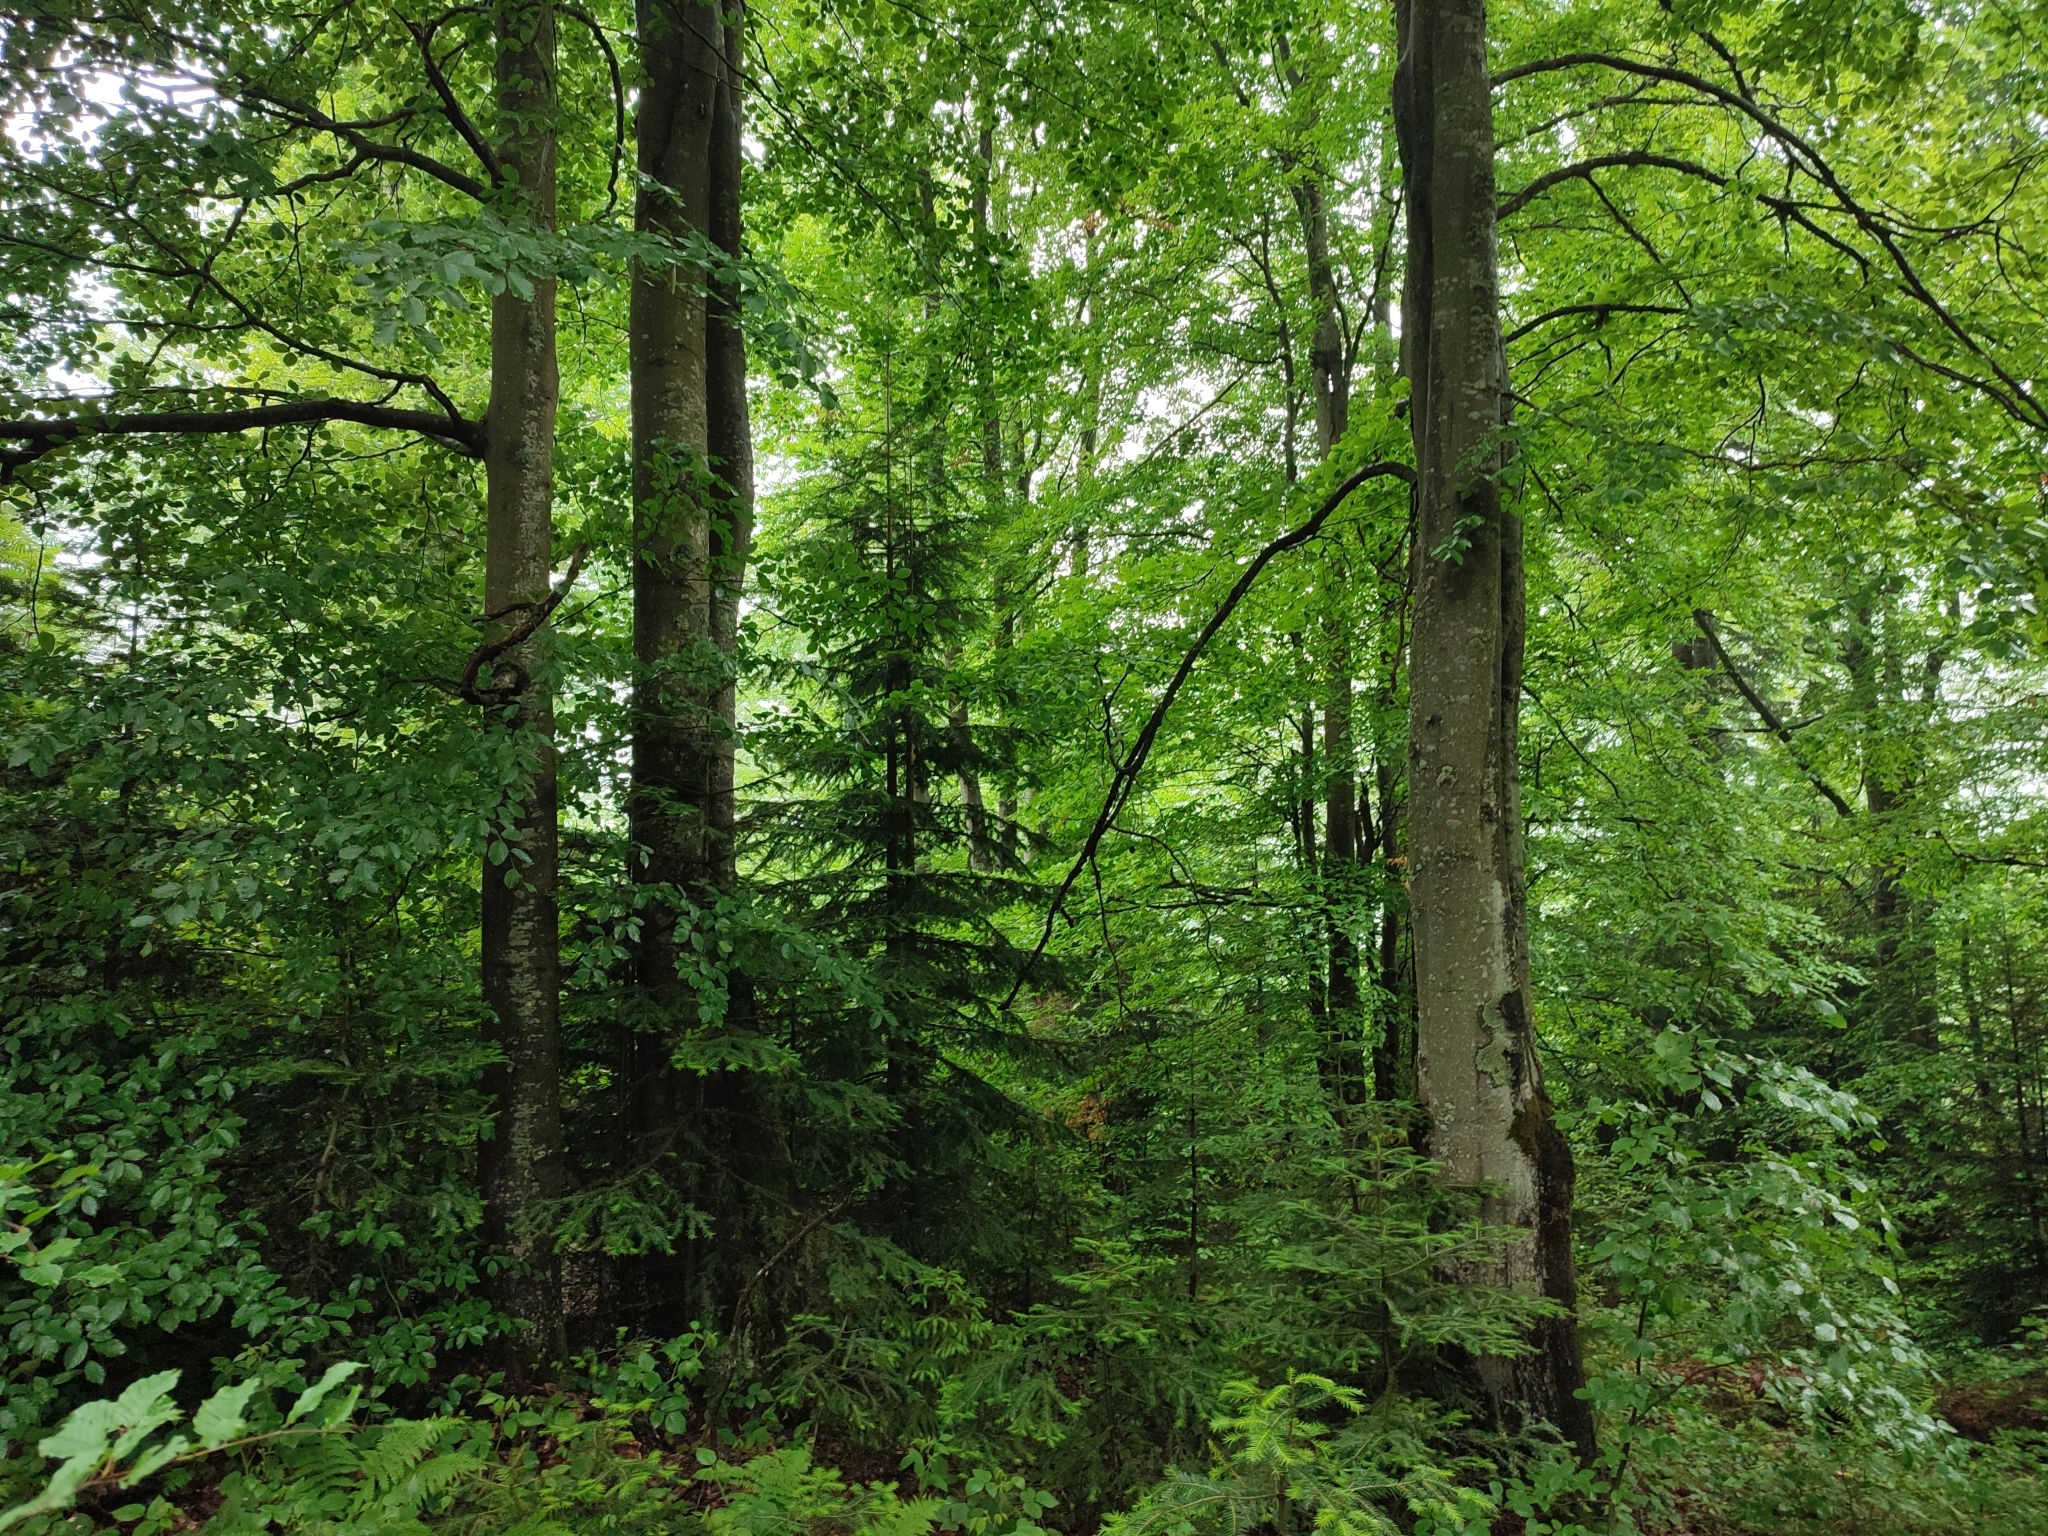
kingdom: Plantae
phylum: Tracheophyta
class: Magnoliopsida
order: Fagales
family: Fagaceae
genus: Fagus
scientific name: Fagus sylvatica
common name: Beech
